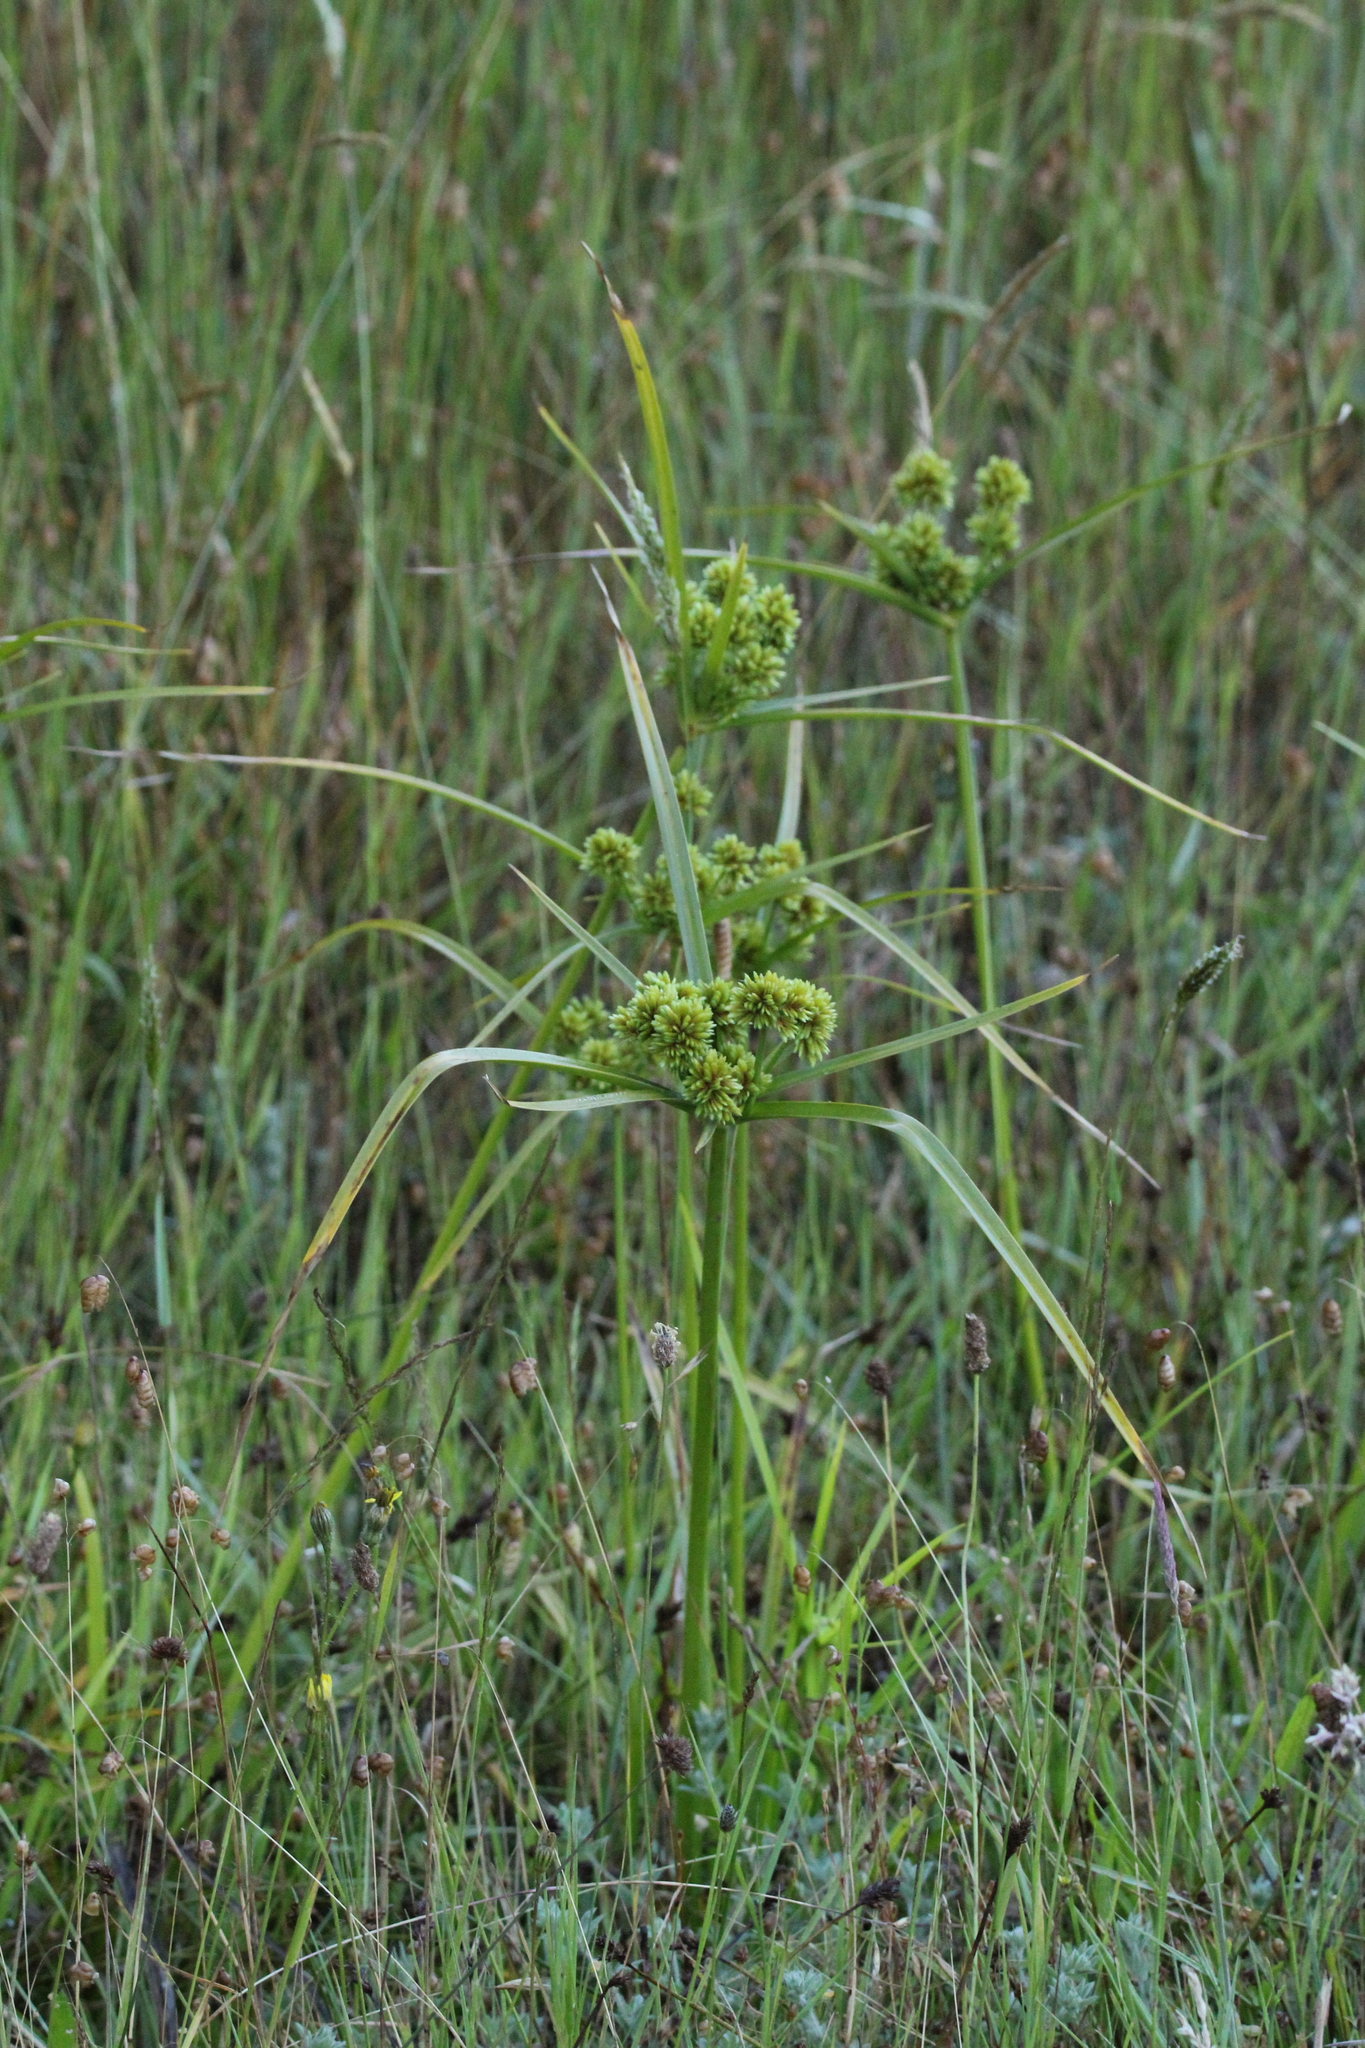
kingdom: Plantae
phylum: Tracheophyta
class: Liliopsida
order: Poales
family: Cyperaceae
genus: Cyperus
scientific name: Cyperus eragrostis
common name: Tall flatsedge
